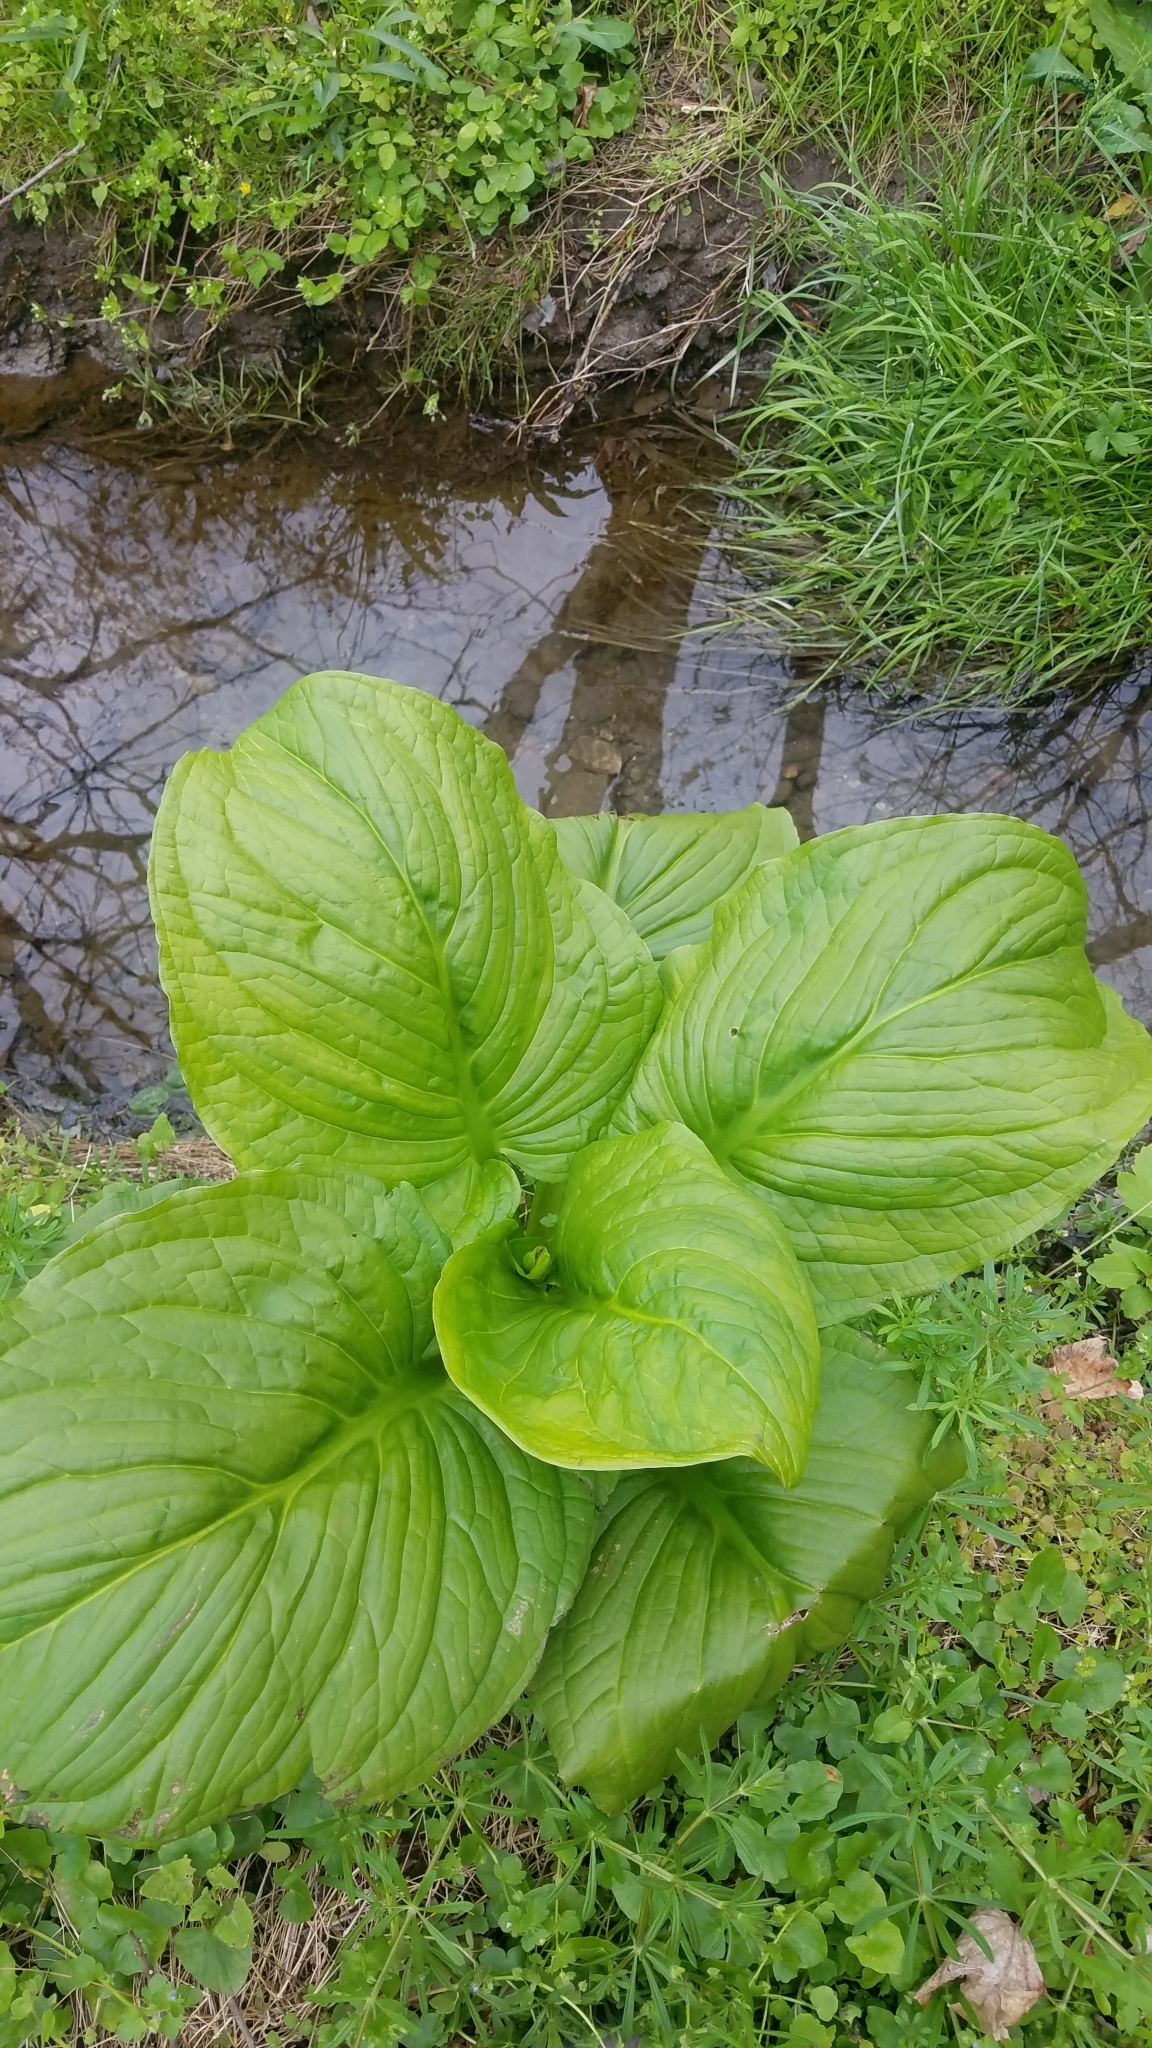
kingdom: Plantae
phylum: Tracheophyta
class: Liliopsida
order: Alismatales
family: Araceae
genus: Symplocarpus
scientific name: Symplocarpus foetidus
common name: Eastern skunk cabbage
